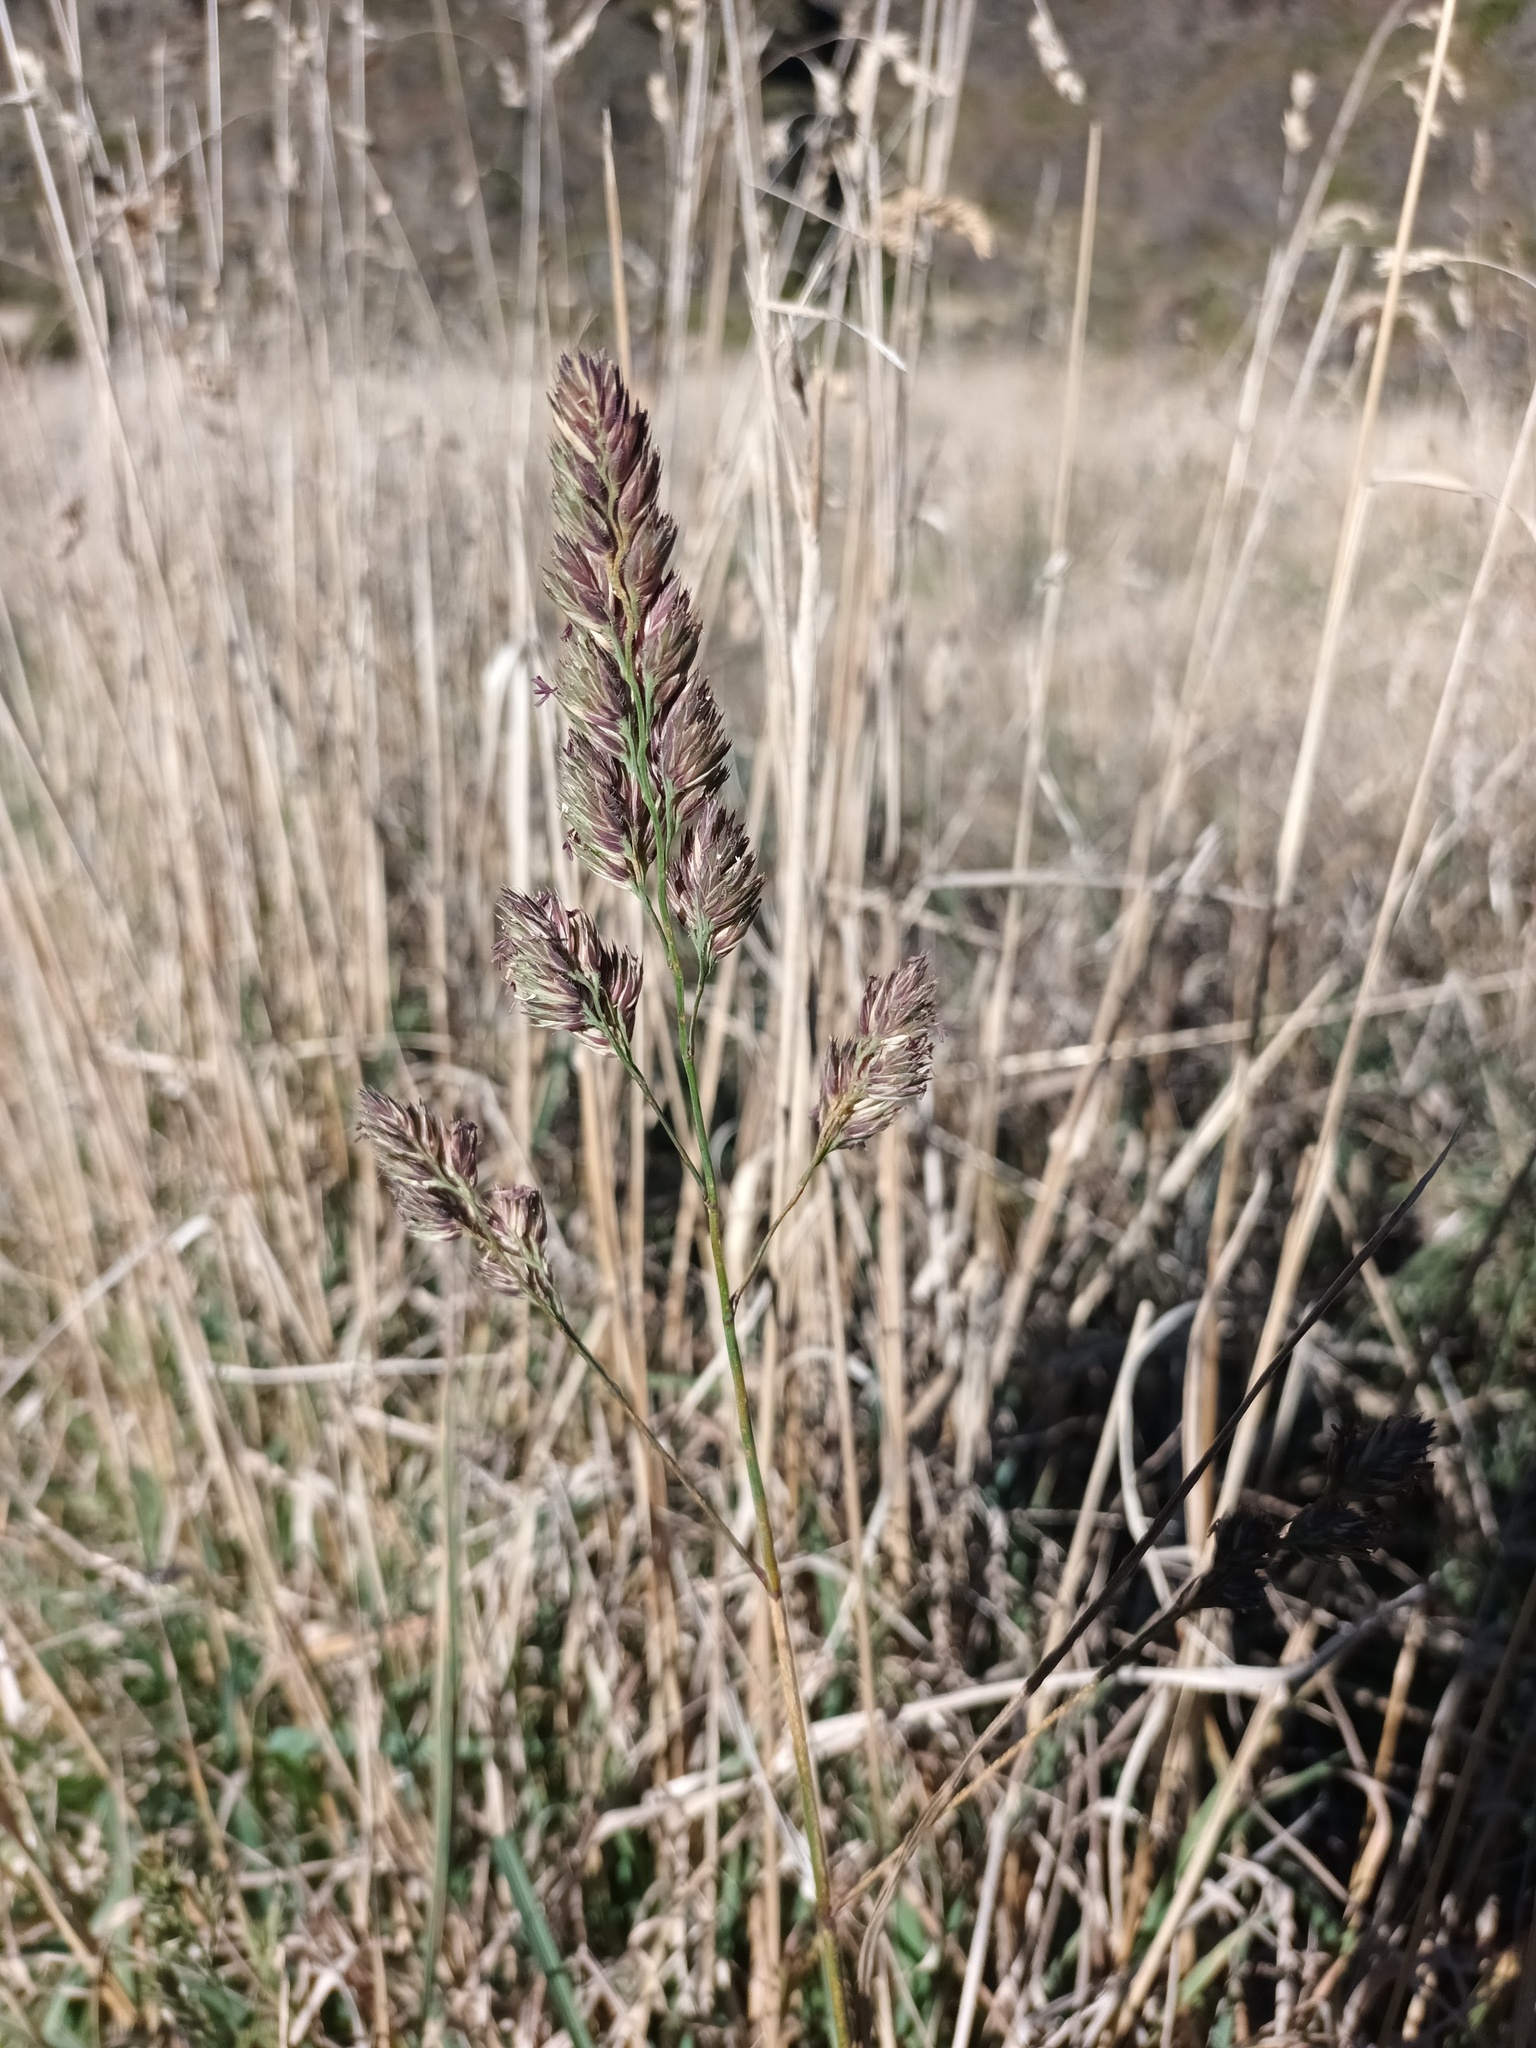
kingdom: Plantae
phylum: Tracheophyta
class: Liliopsida
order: Poales
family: Poaceae
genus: Dactylis
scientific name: Dactylis glomerata
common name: Orchardgrass
